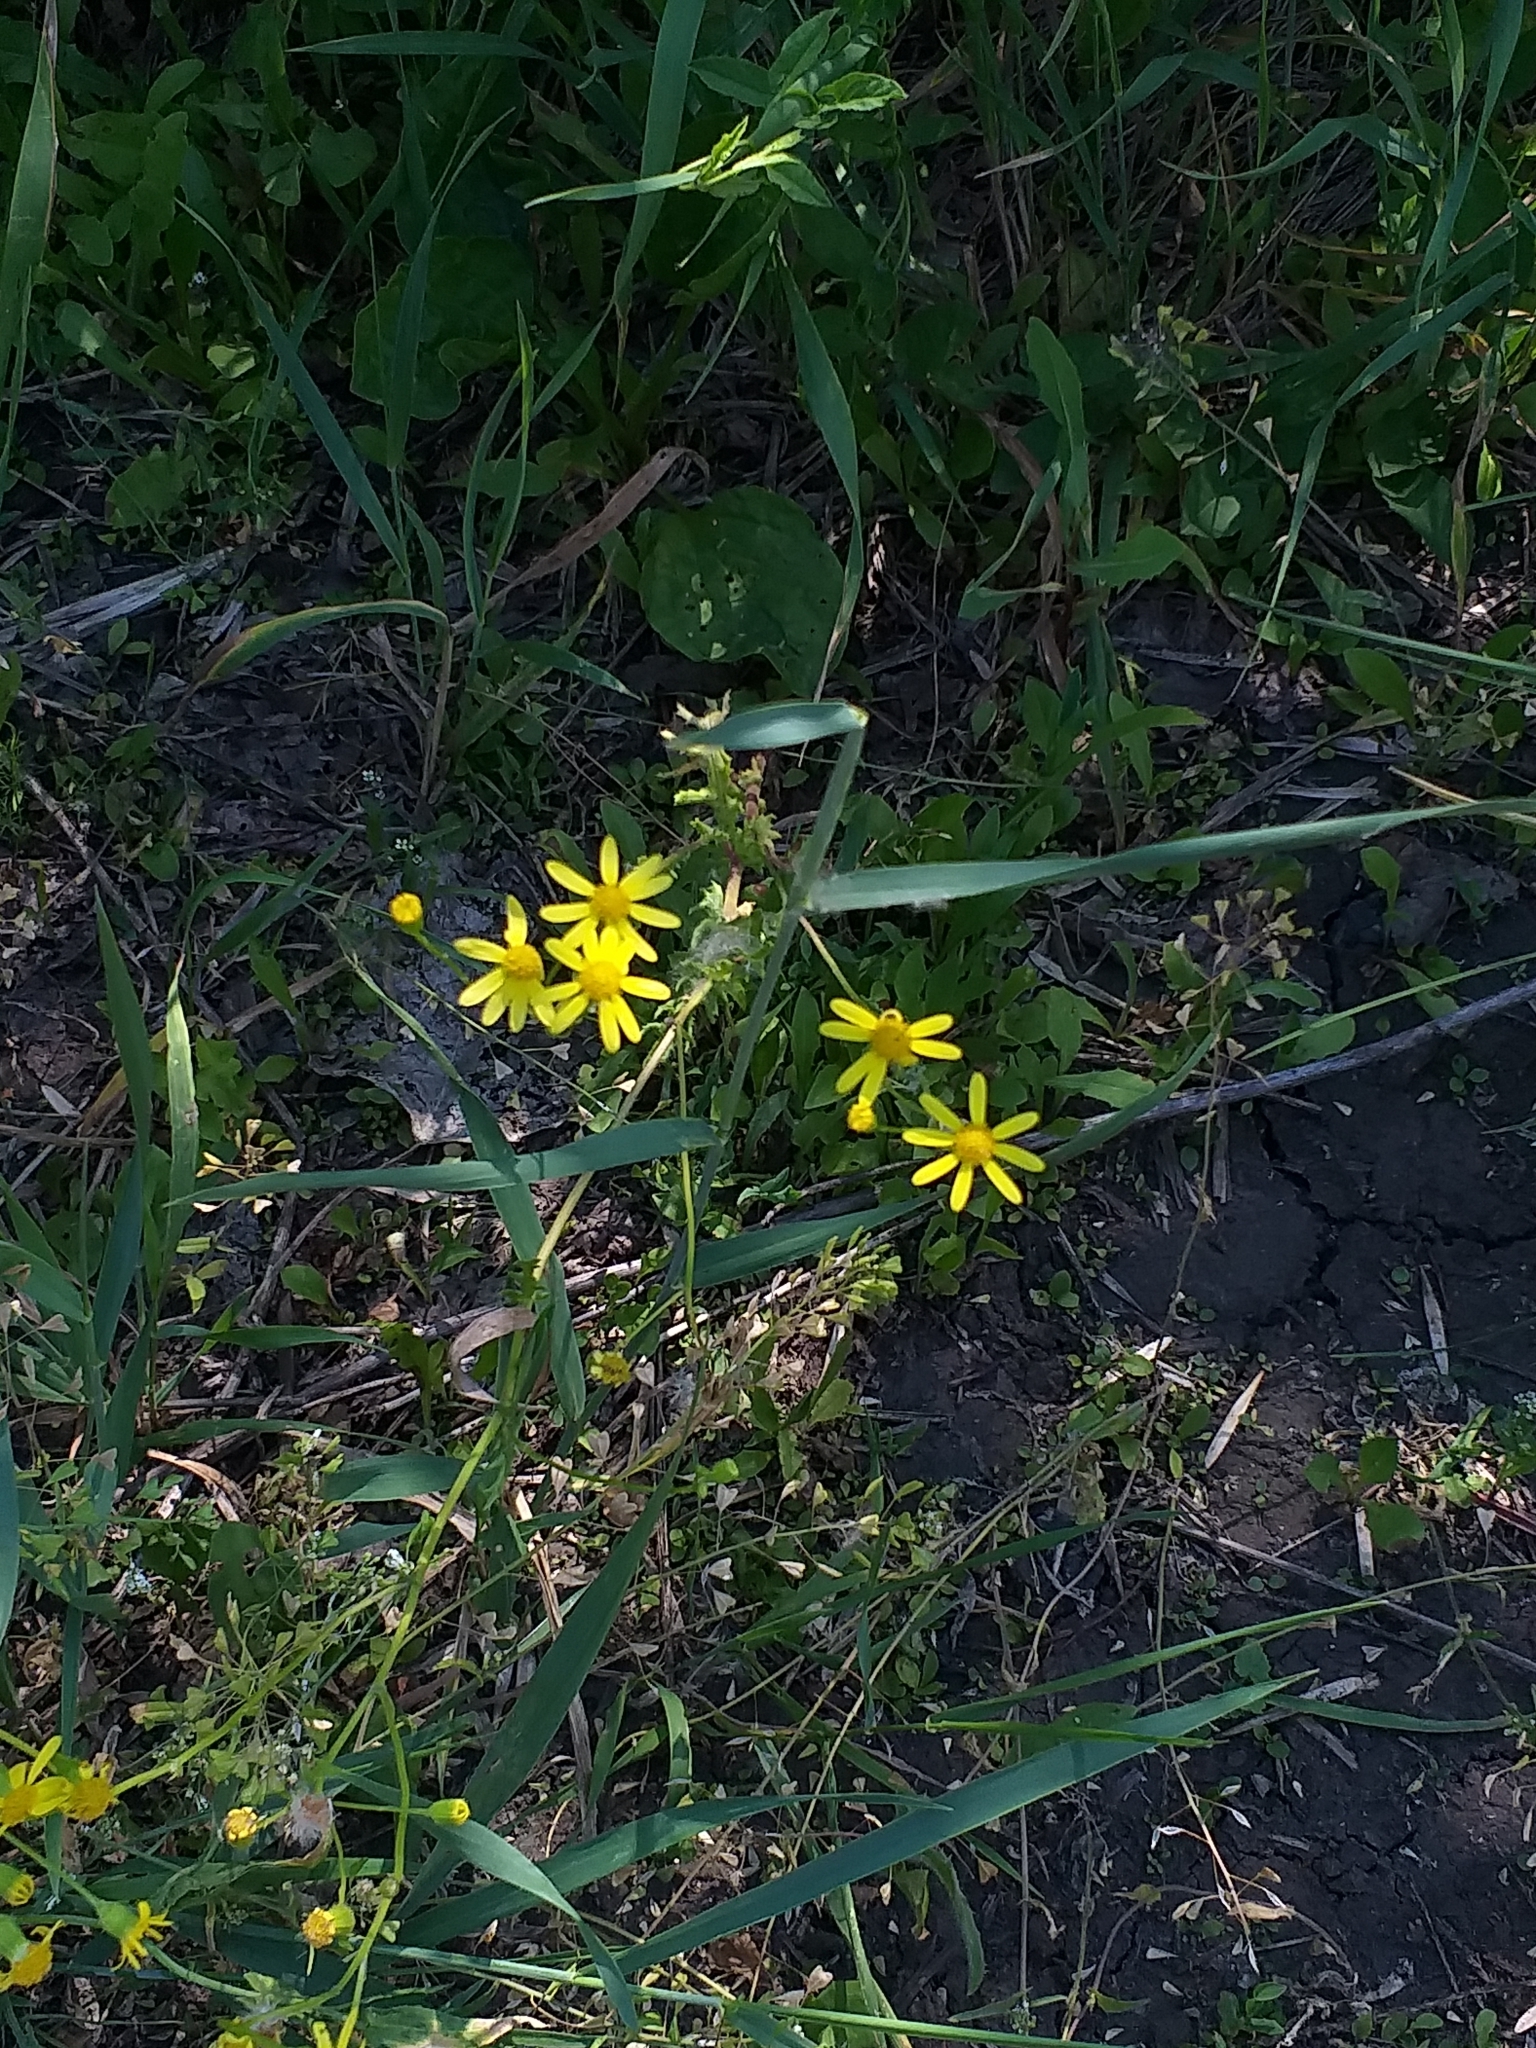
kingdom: Plantae
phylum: Tracheophyta
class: Magnoliopsida
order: Asterales
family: Asteraceae
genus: Senecio
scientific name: Senecio vernalis
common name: Eastern groundsel
